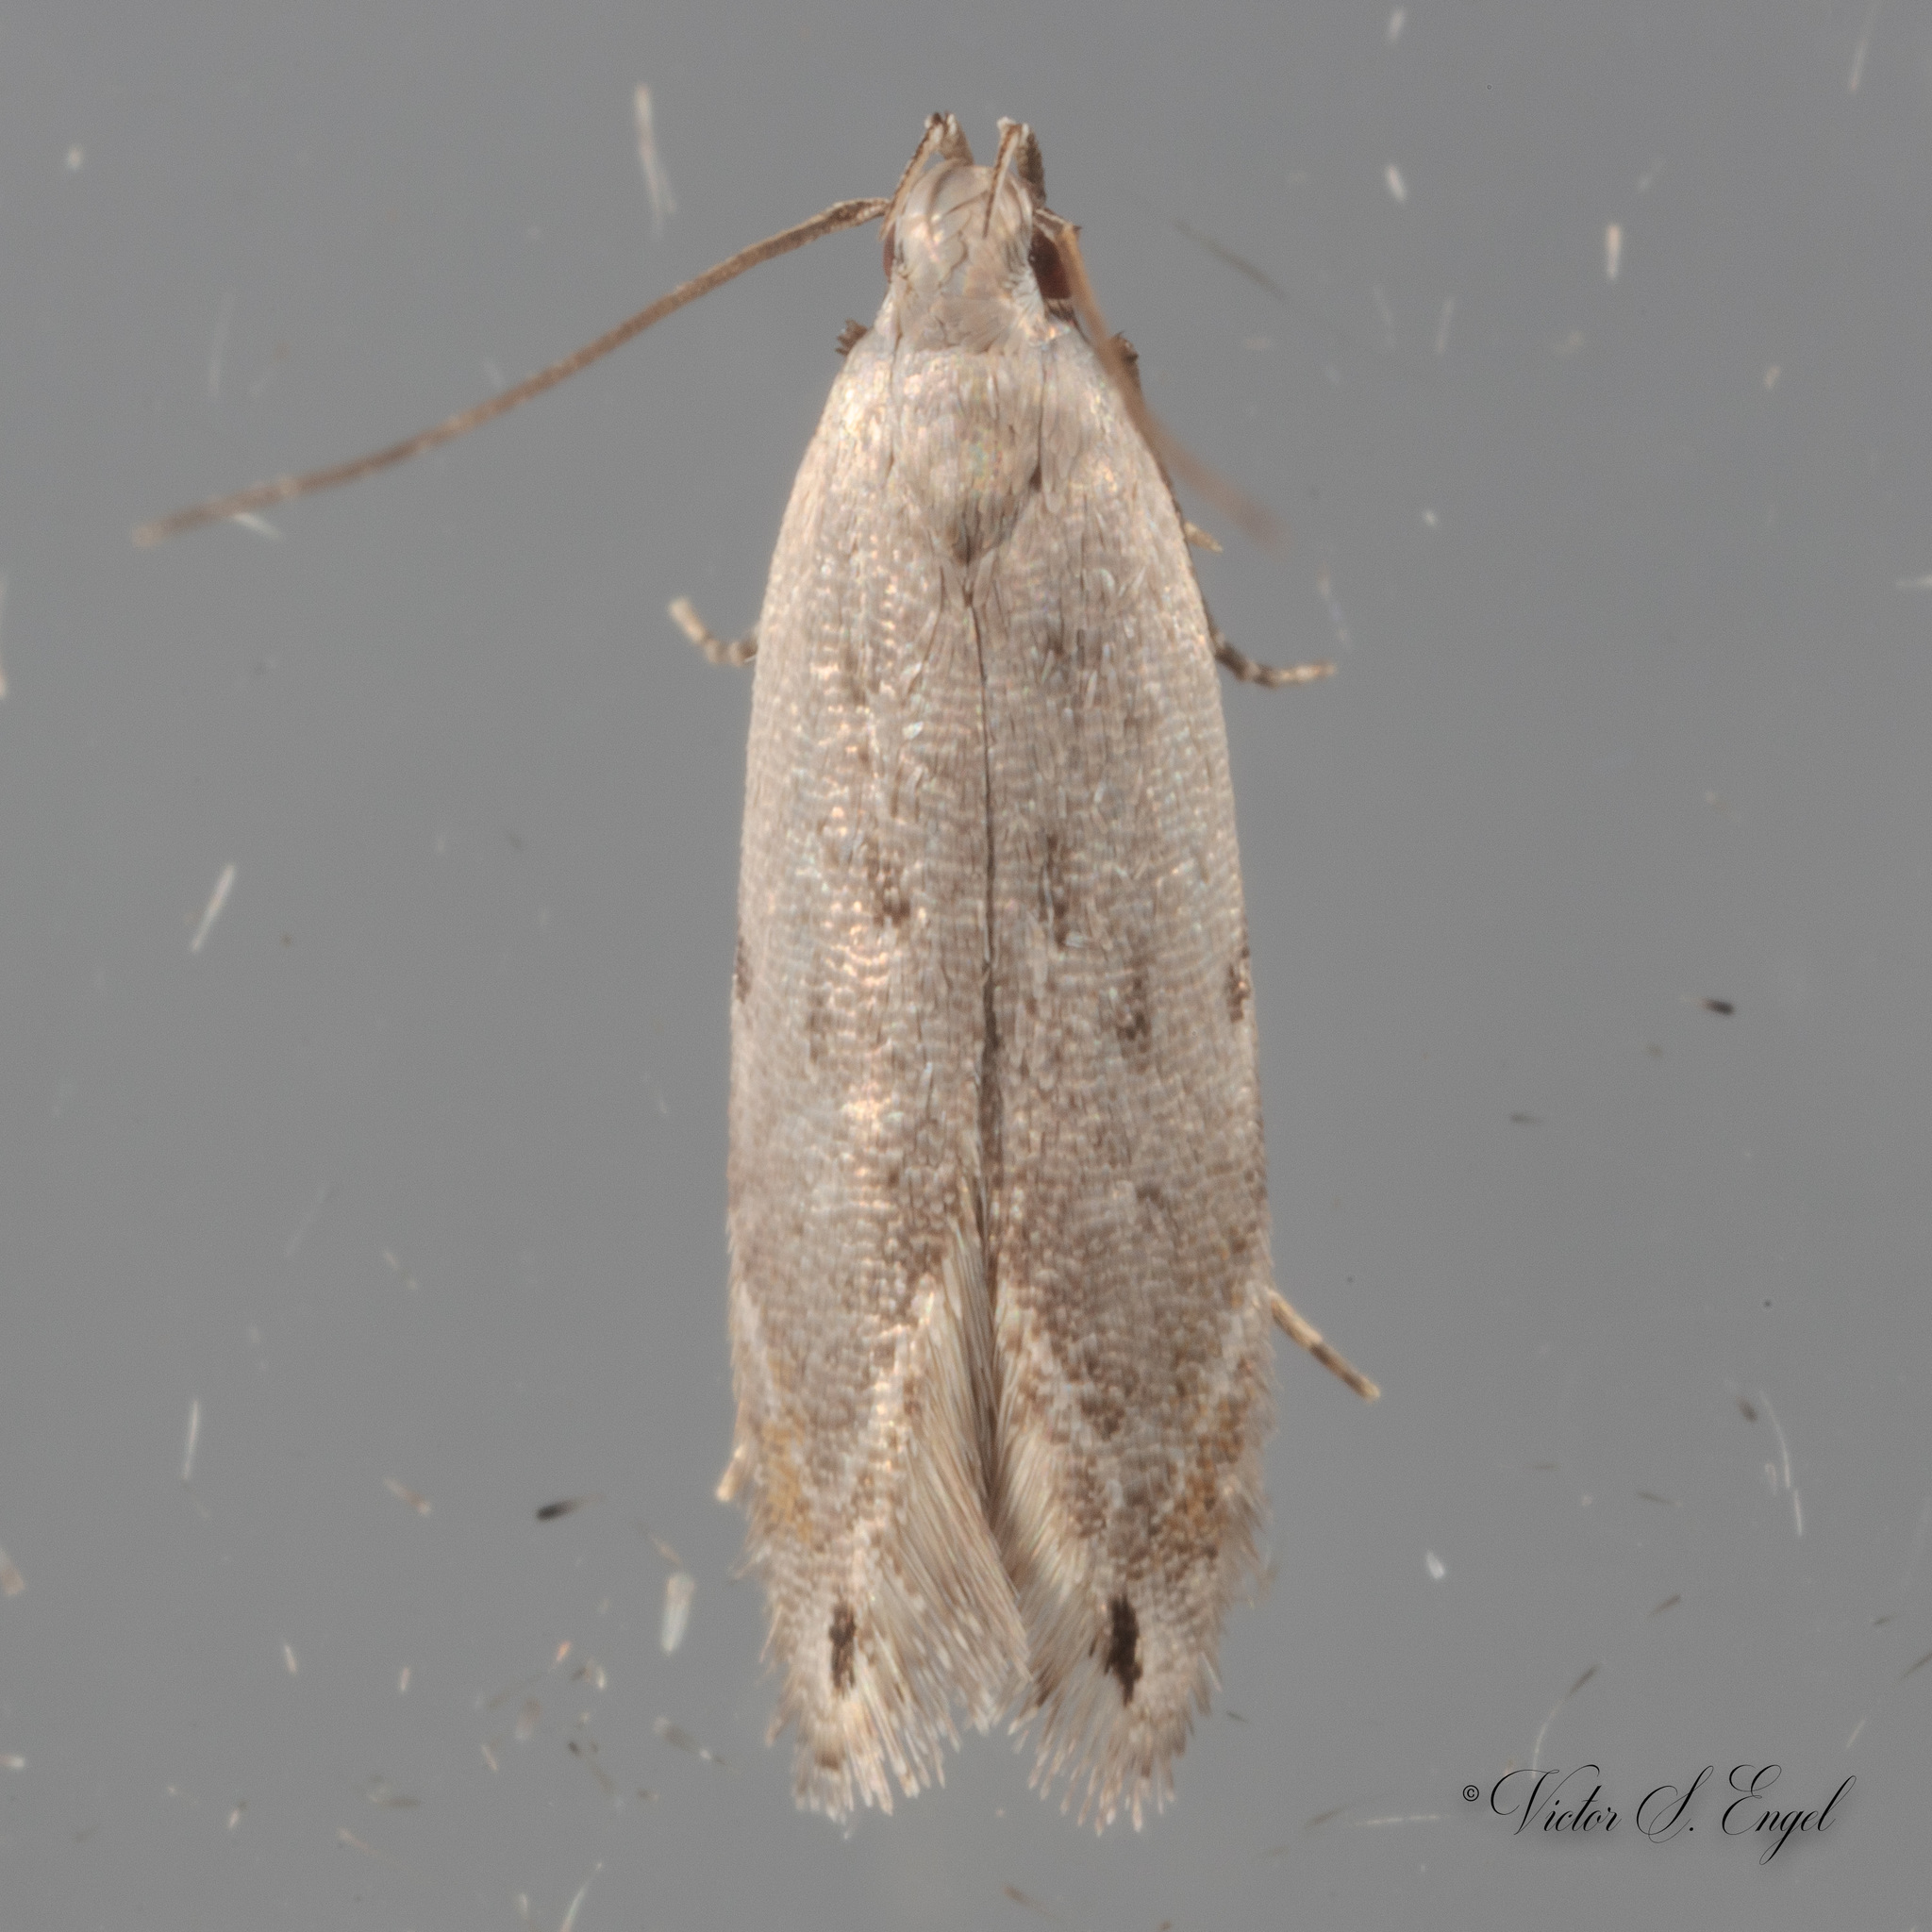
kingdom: Animalia
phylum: Arthropoda
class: Insecta
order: Lepidoptera
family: Gelechiidae
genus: Battaristis
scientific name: Battaristis concinnusella
